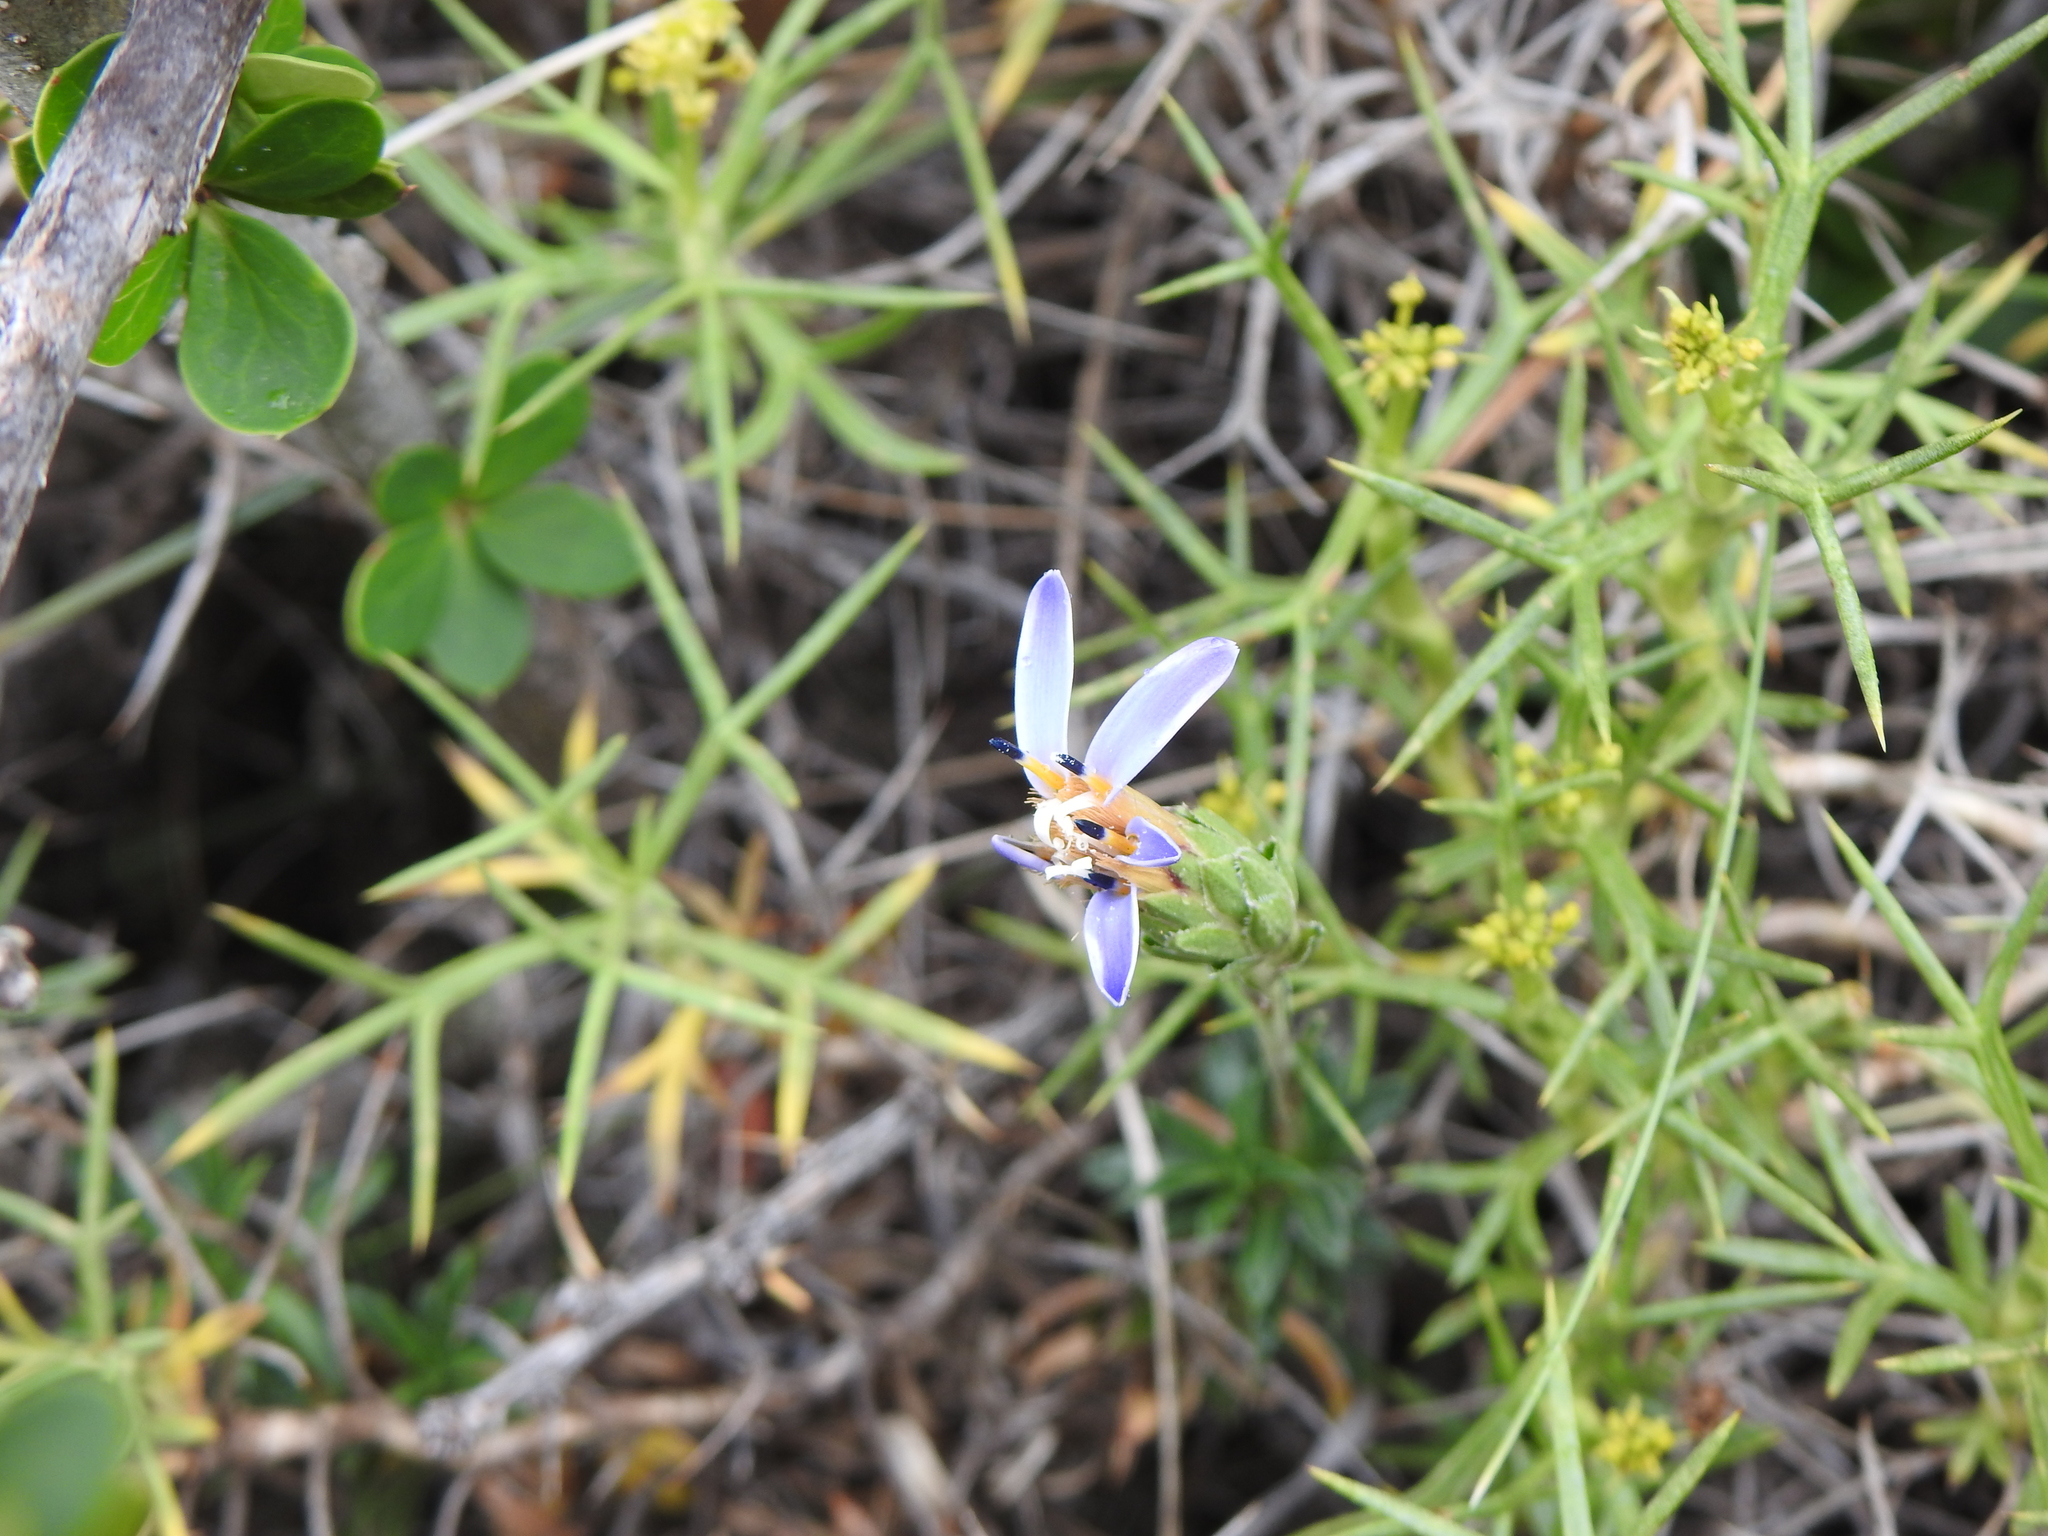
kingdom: Plantae
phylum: Tracheophyta
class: Magnoliopsida
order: Asterales
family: Asteraceae
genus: Perezia
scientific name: Perezia recurvata
